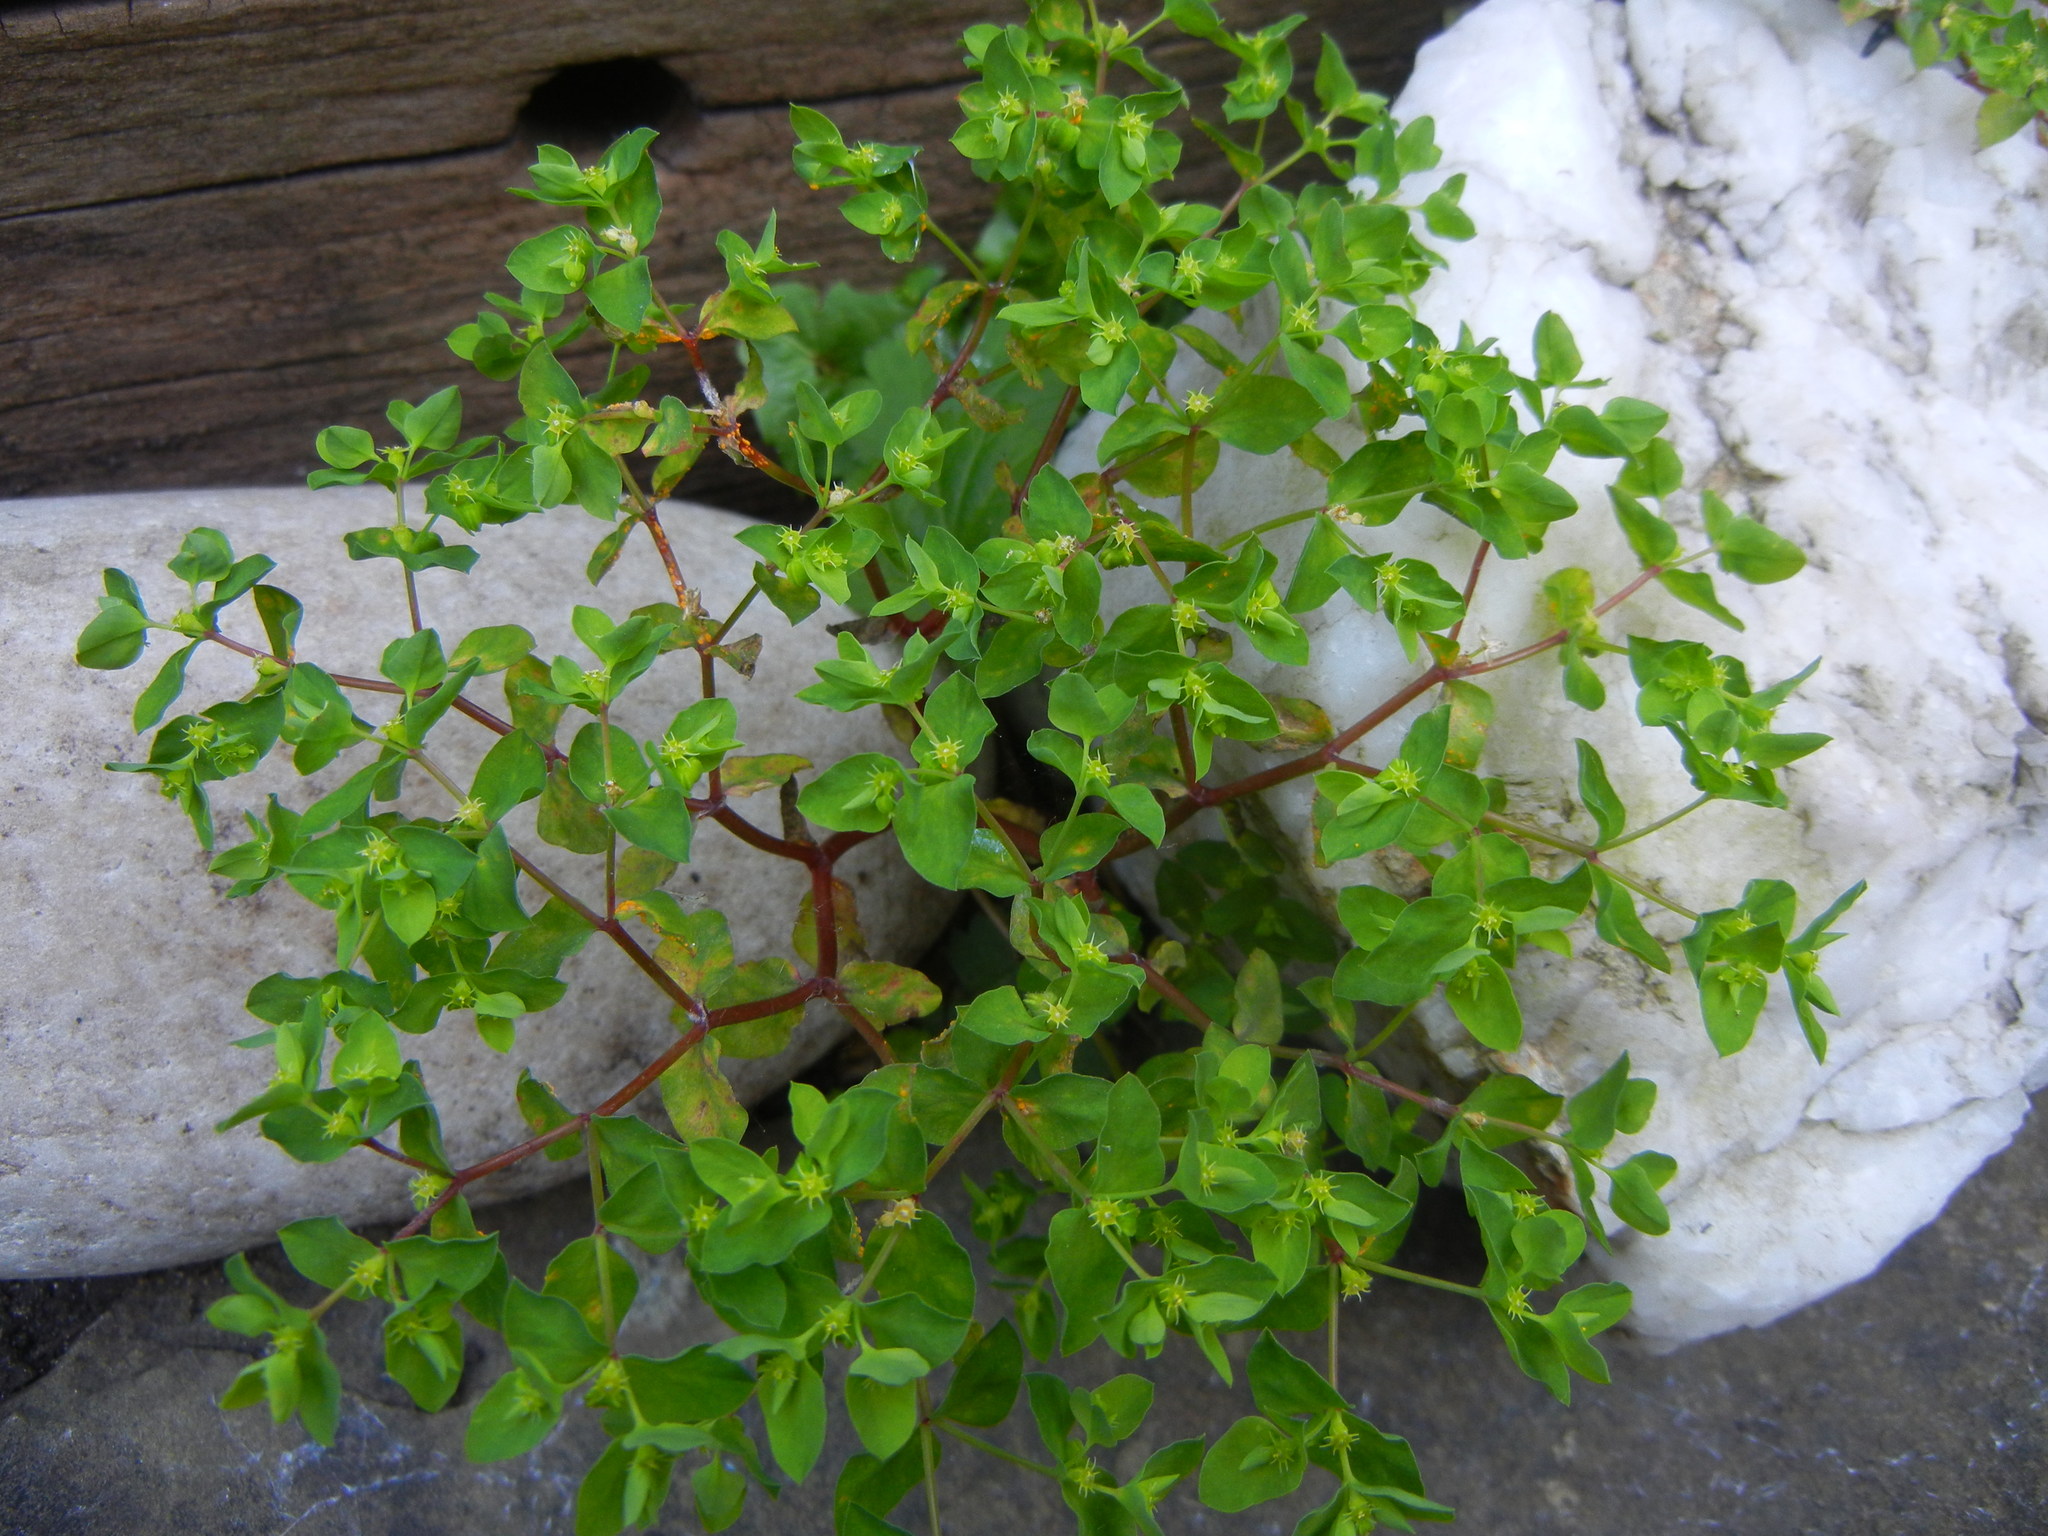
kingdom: Plantae
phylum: Tracheophyta
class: Magnoliopsida
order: Malpighiales
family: Euphorbiaceae
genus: Euphorbia
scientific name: Euphorbia peplus
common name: Petty spurge
